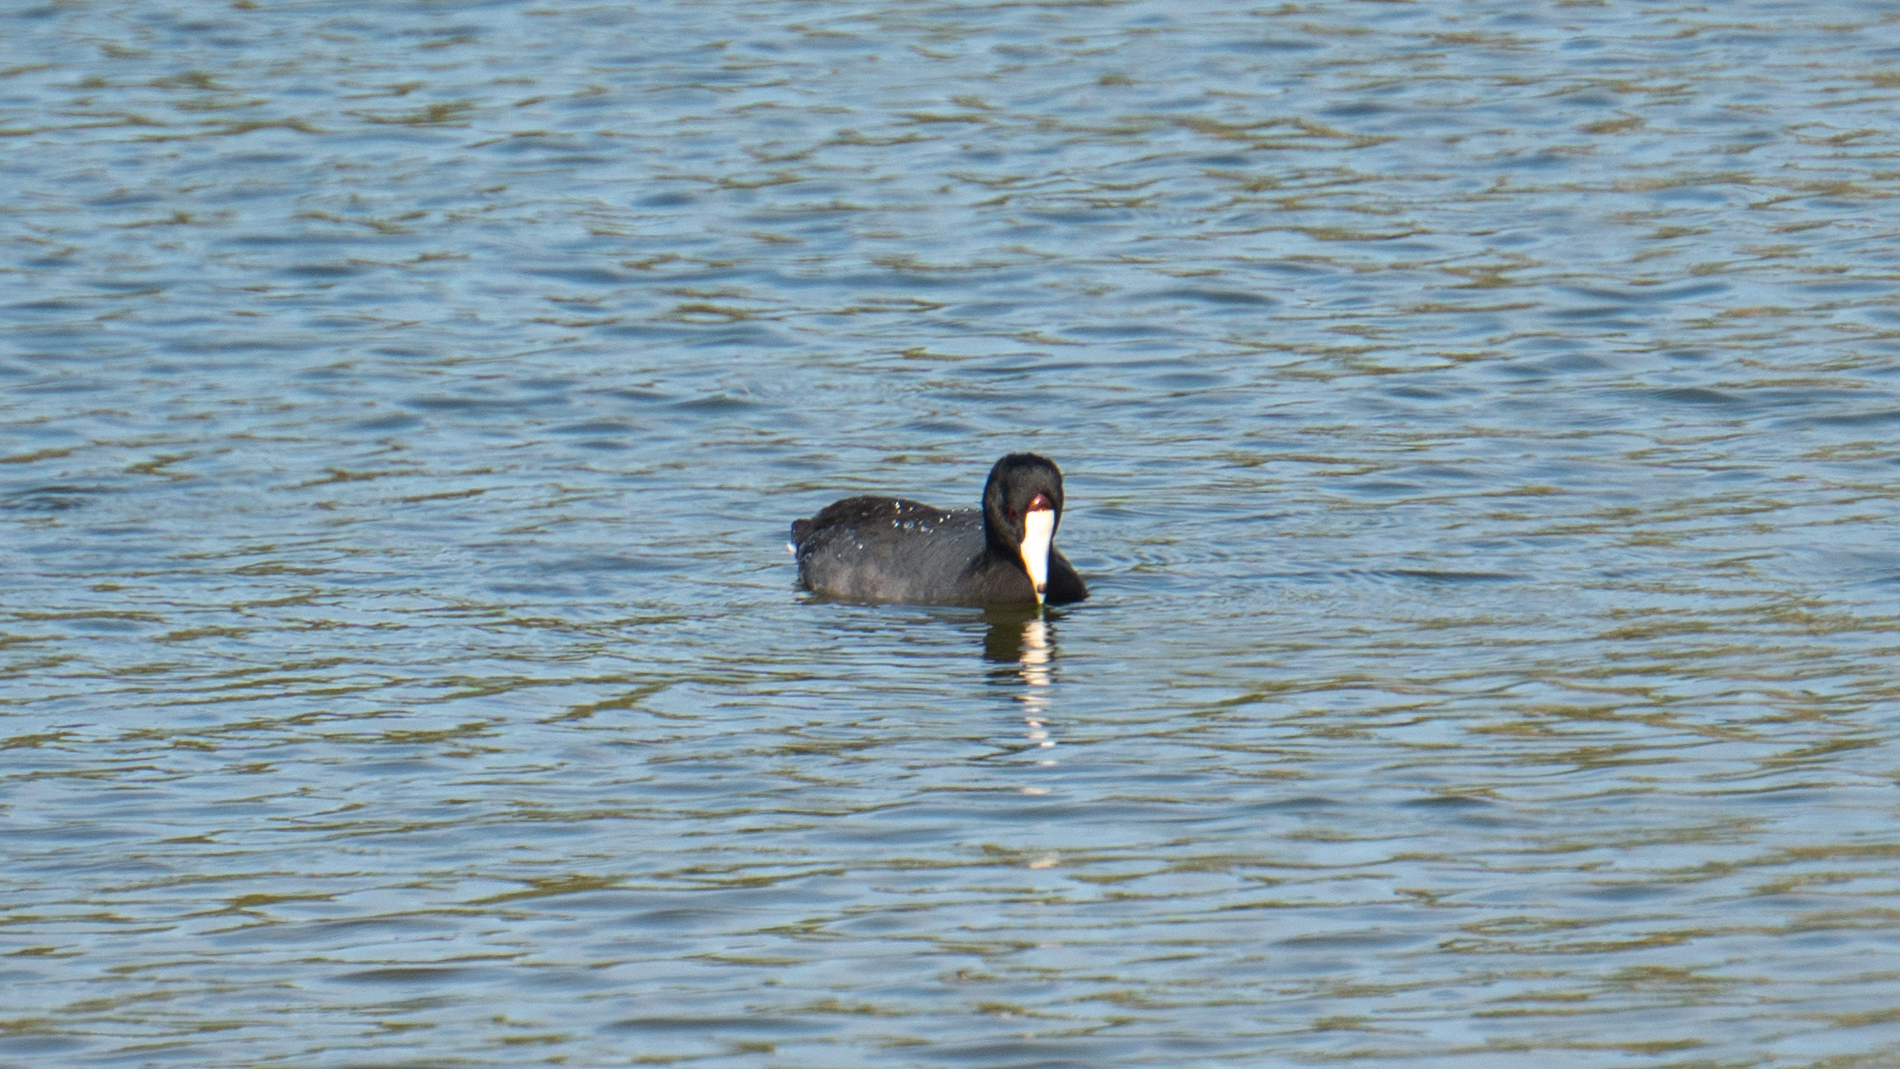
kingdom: Animalia
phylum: Chordata
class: Aves
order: Gruiformes
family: Rallidae
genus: Fulica
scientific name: Fulica americana
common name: American coot
